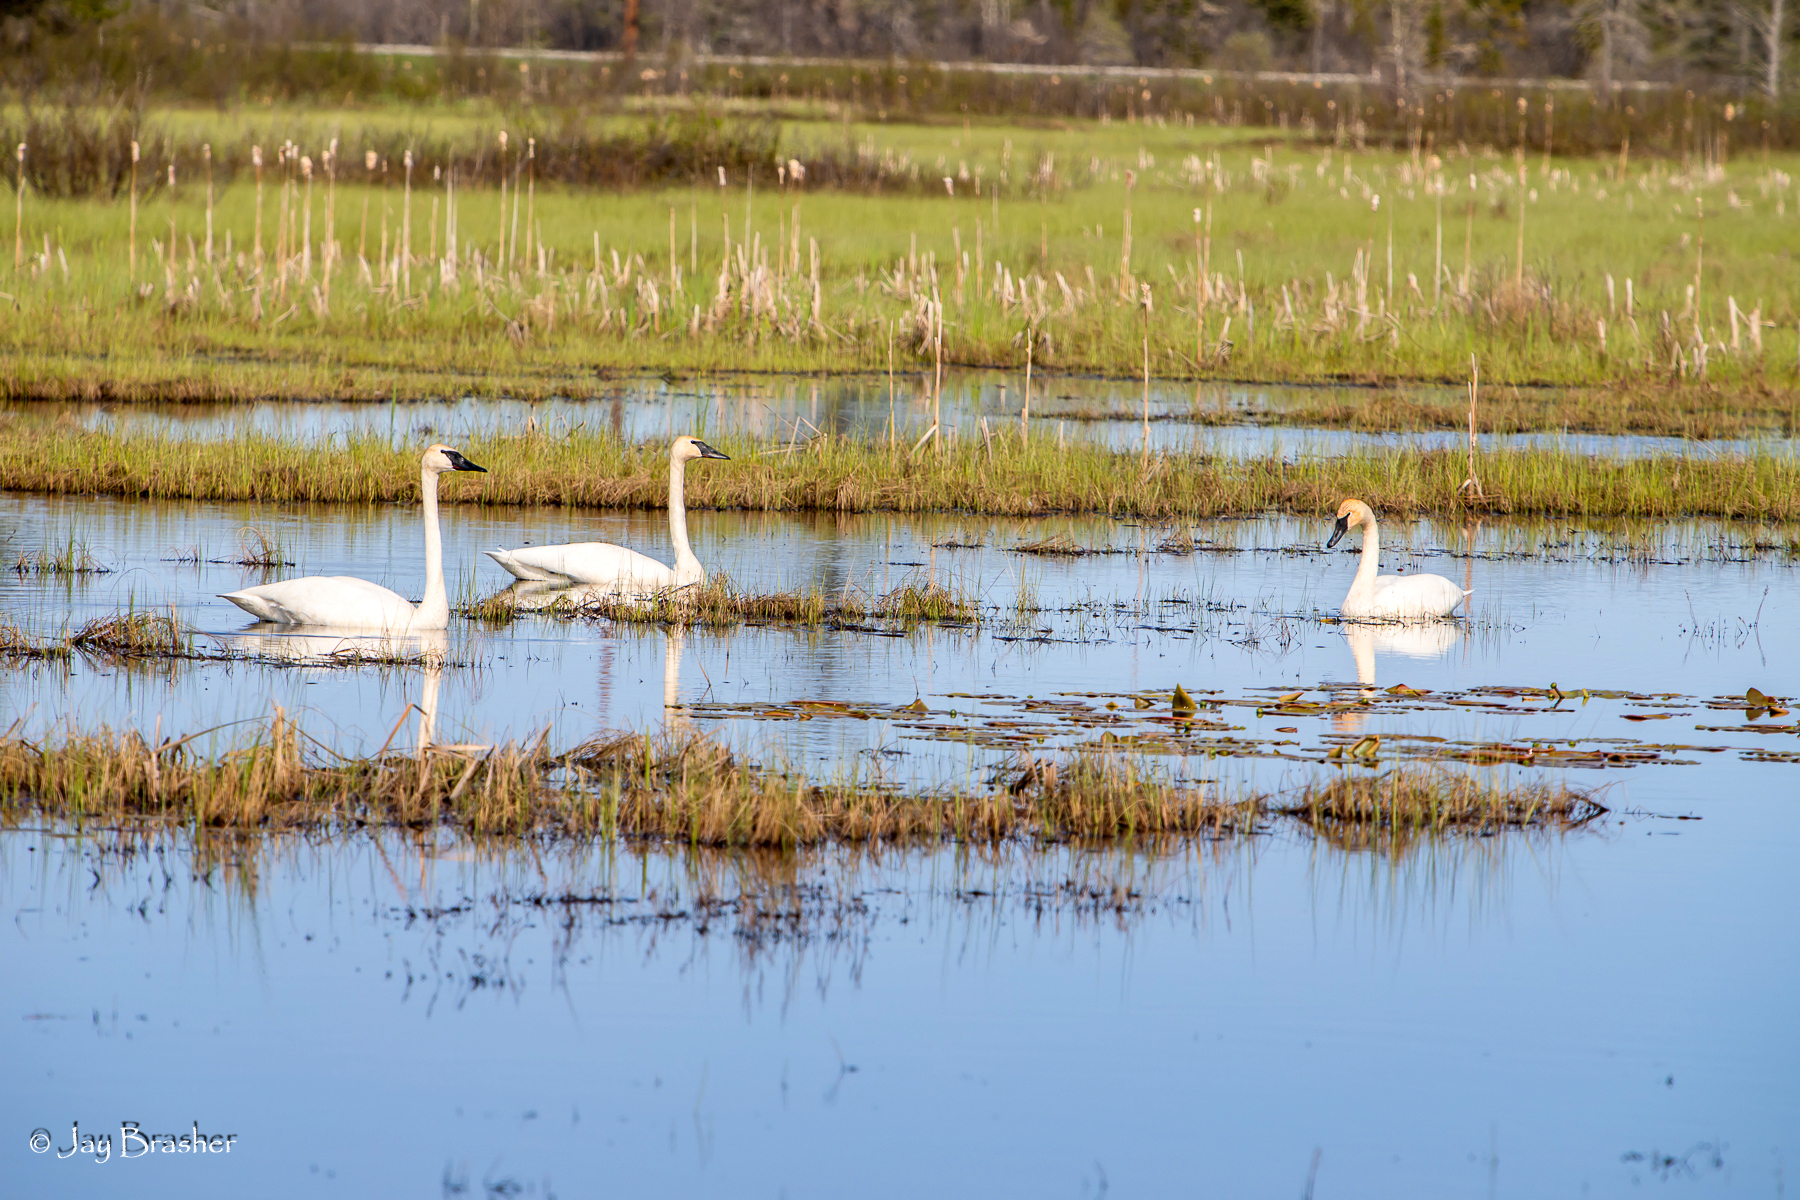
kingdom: Animalia
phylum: Chordata
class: Aves
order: Anseriformes
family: Anatidae
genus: Cygnus
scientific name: Cygnus buccinator
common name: Trumpeter swan
